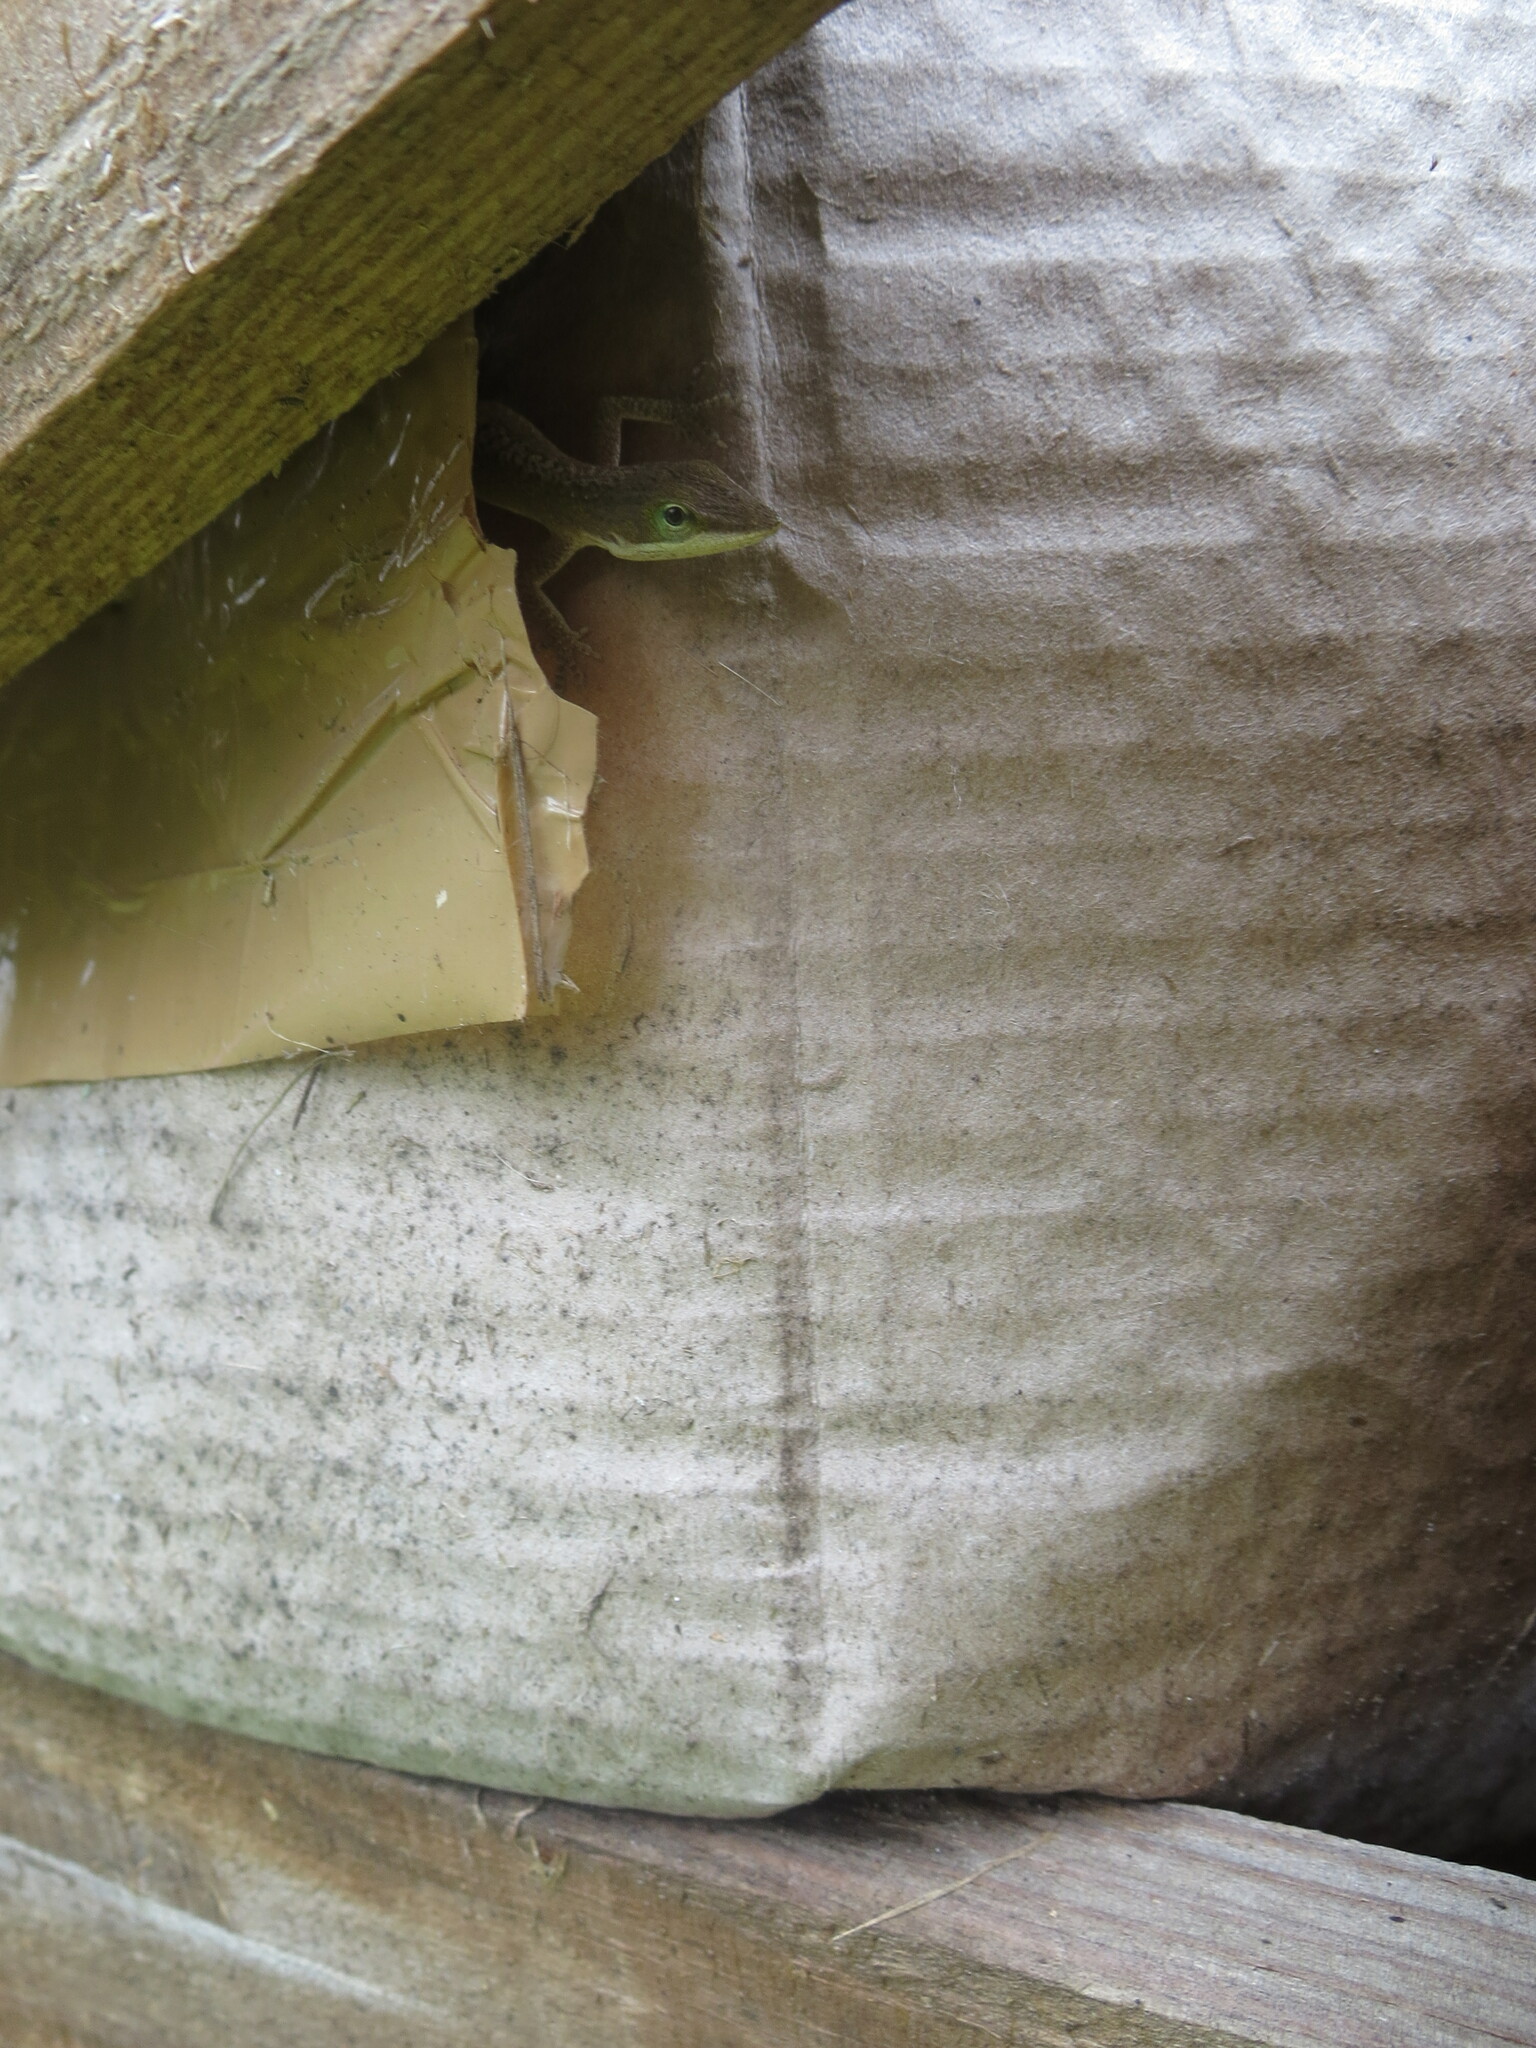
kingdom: Animalia
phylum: Chordata
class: Squamata
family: Dactyloidae
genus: Anolis
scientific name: Anolis carolinensis
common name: Green anole
